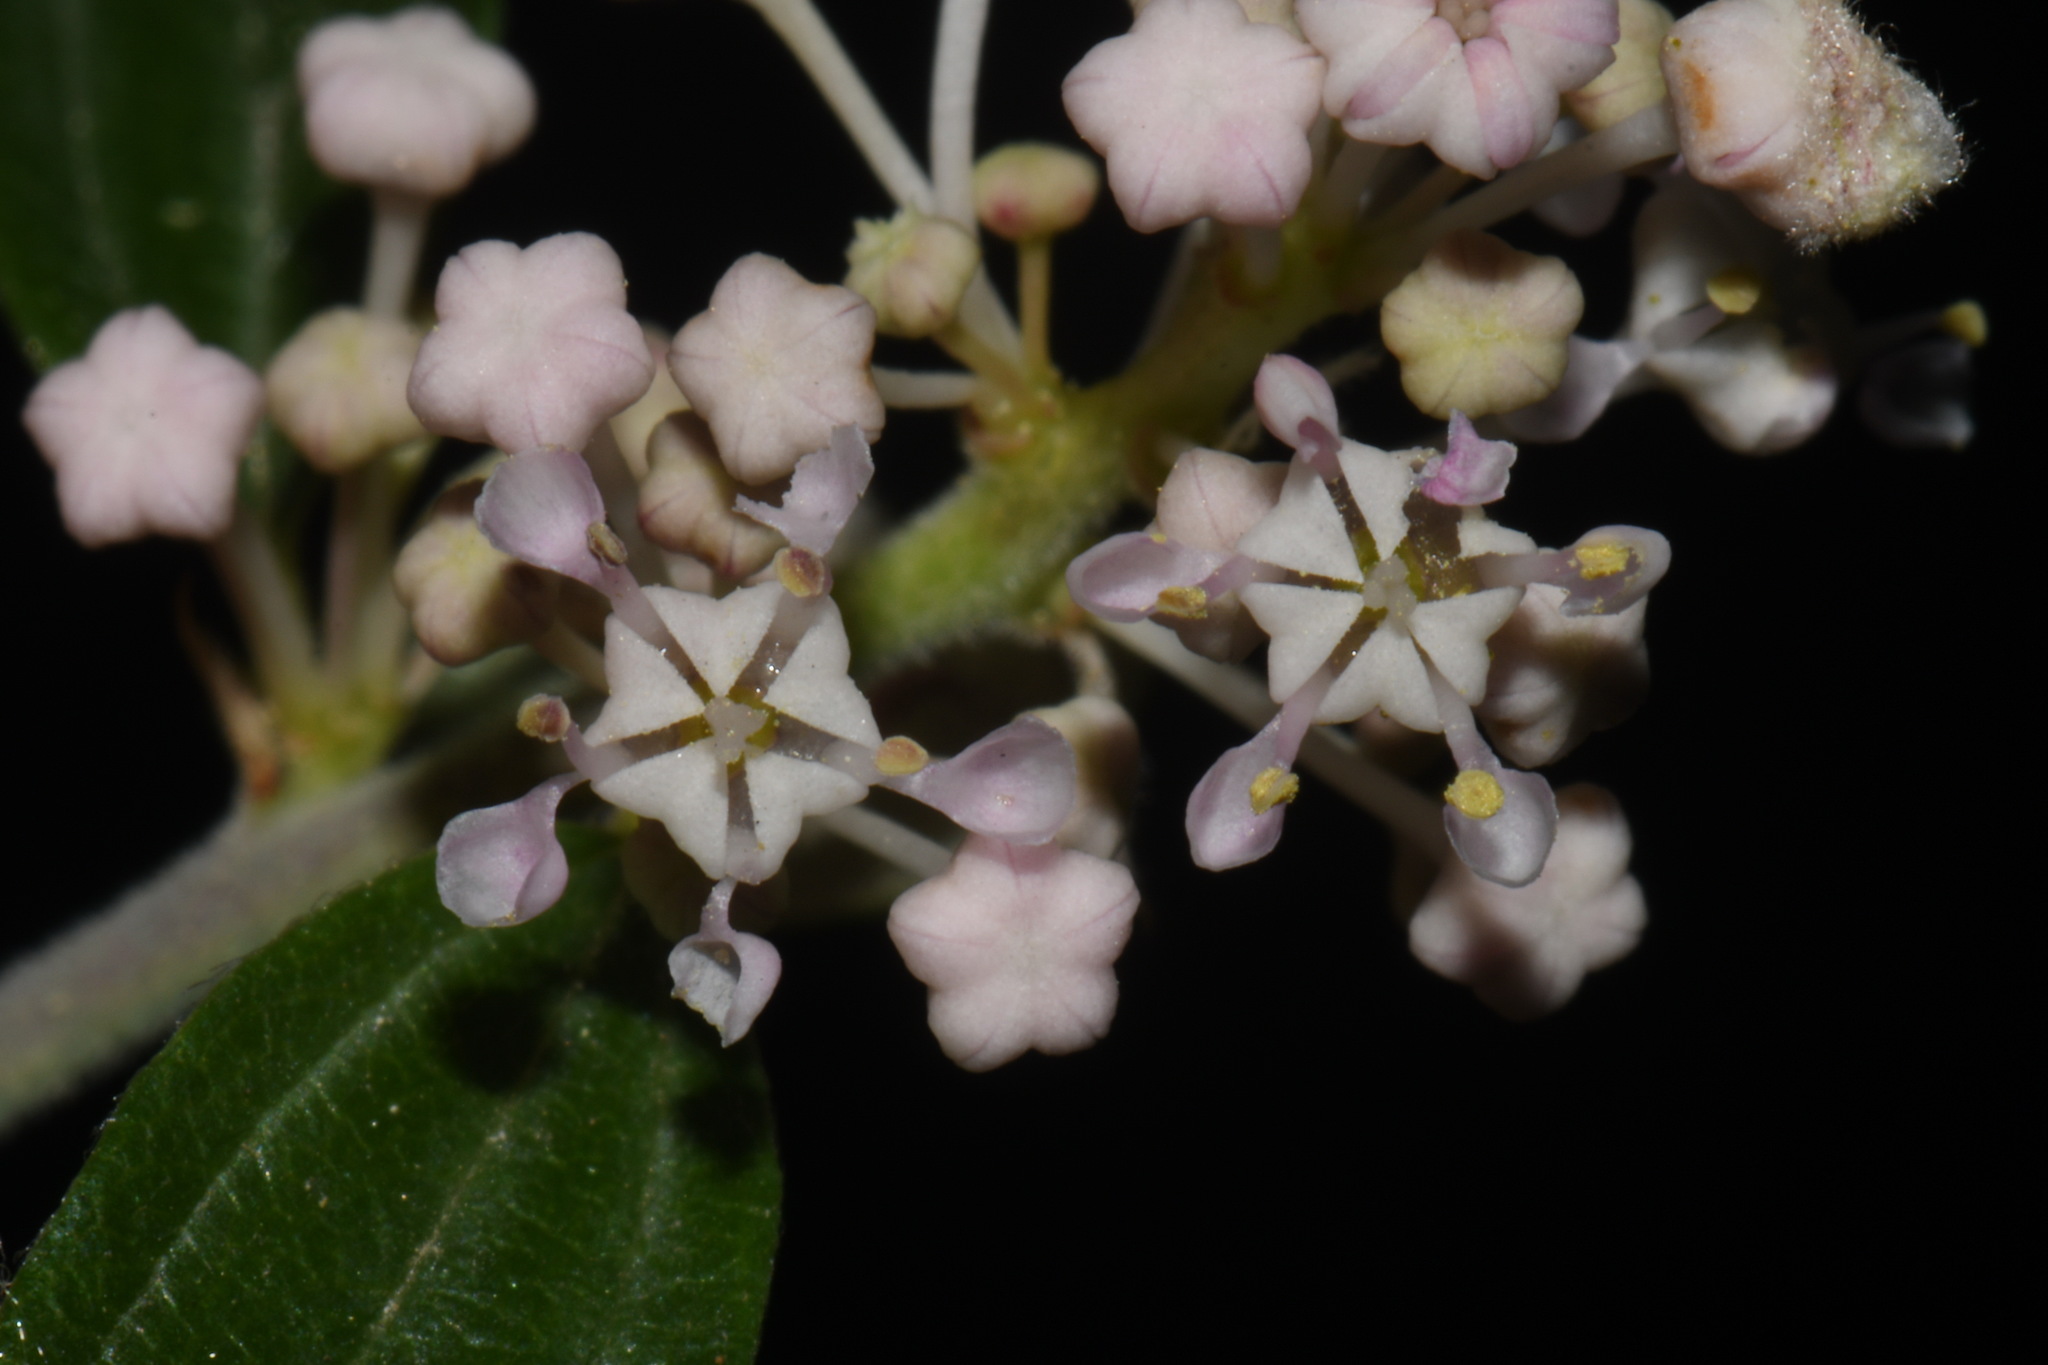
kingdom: Plantae
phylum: Tracheophyta
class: Magnoliopsida
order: Rosales
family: Rhamnaceae
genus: Ceanothus
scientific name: Ceanothus fendleri
